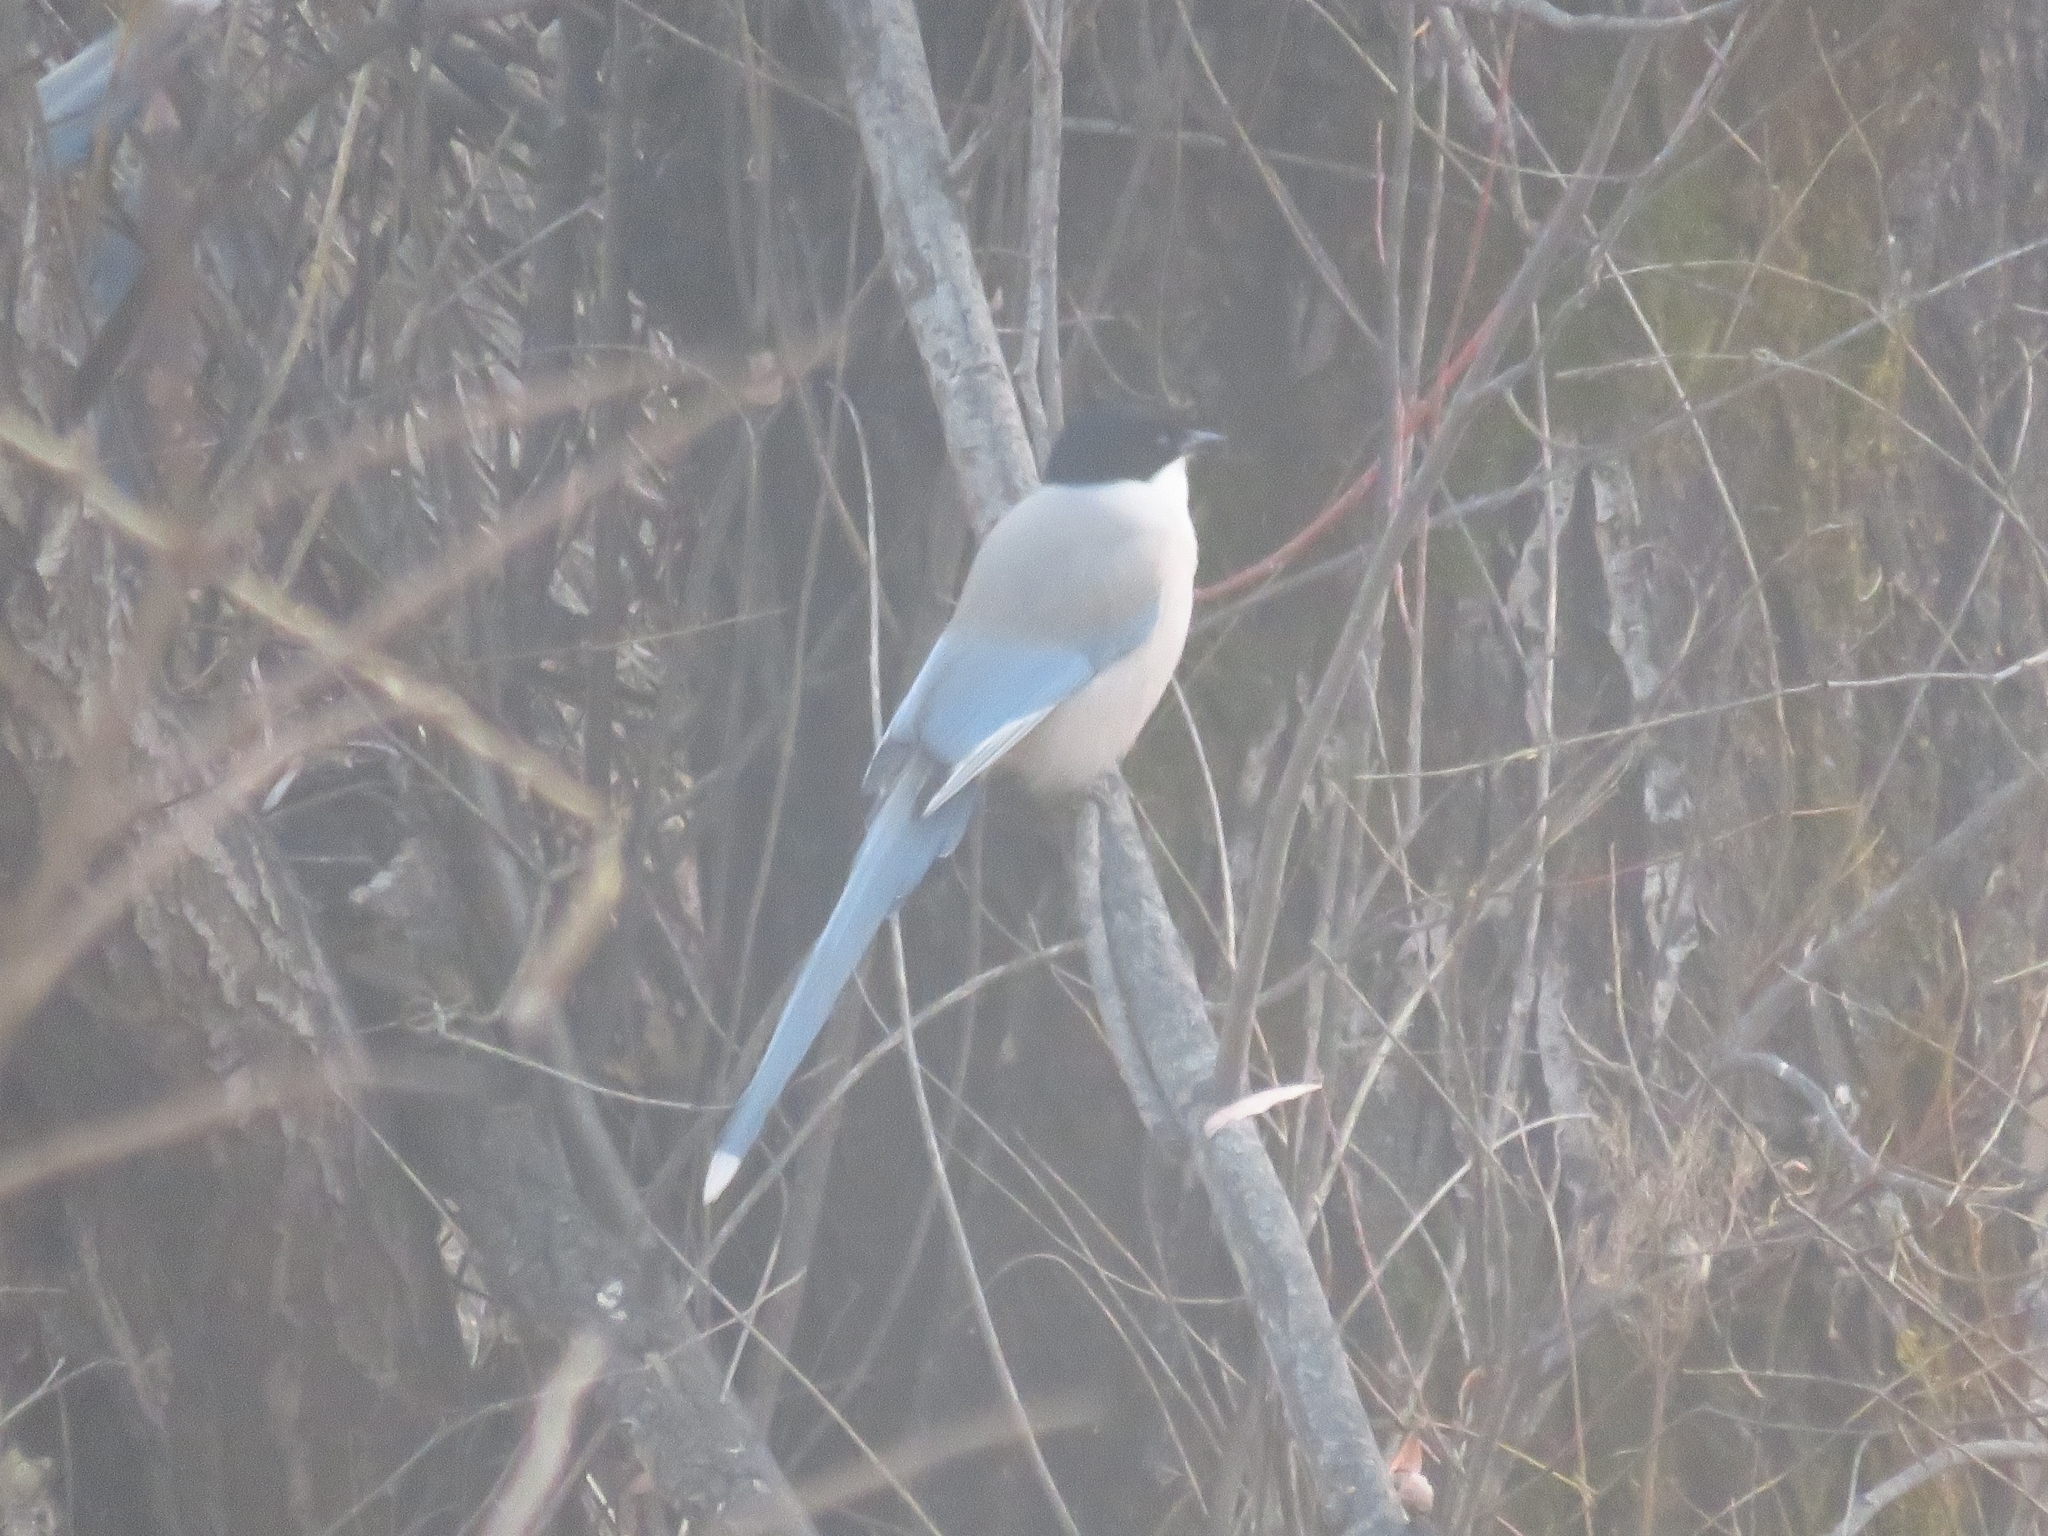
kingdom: Animalia
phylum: Chordata
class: Aves
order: Passeriformes
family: Corvidae
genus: Cyanopica
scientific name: Cyanopica cyanus
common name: Azure-winged magpie
